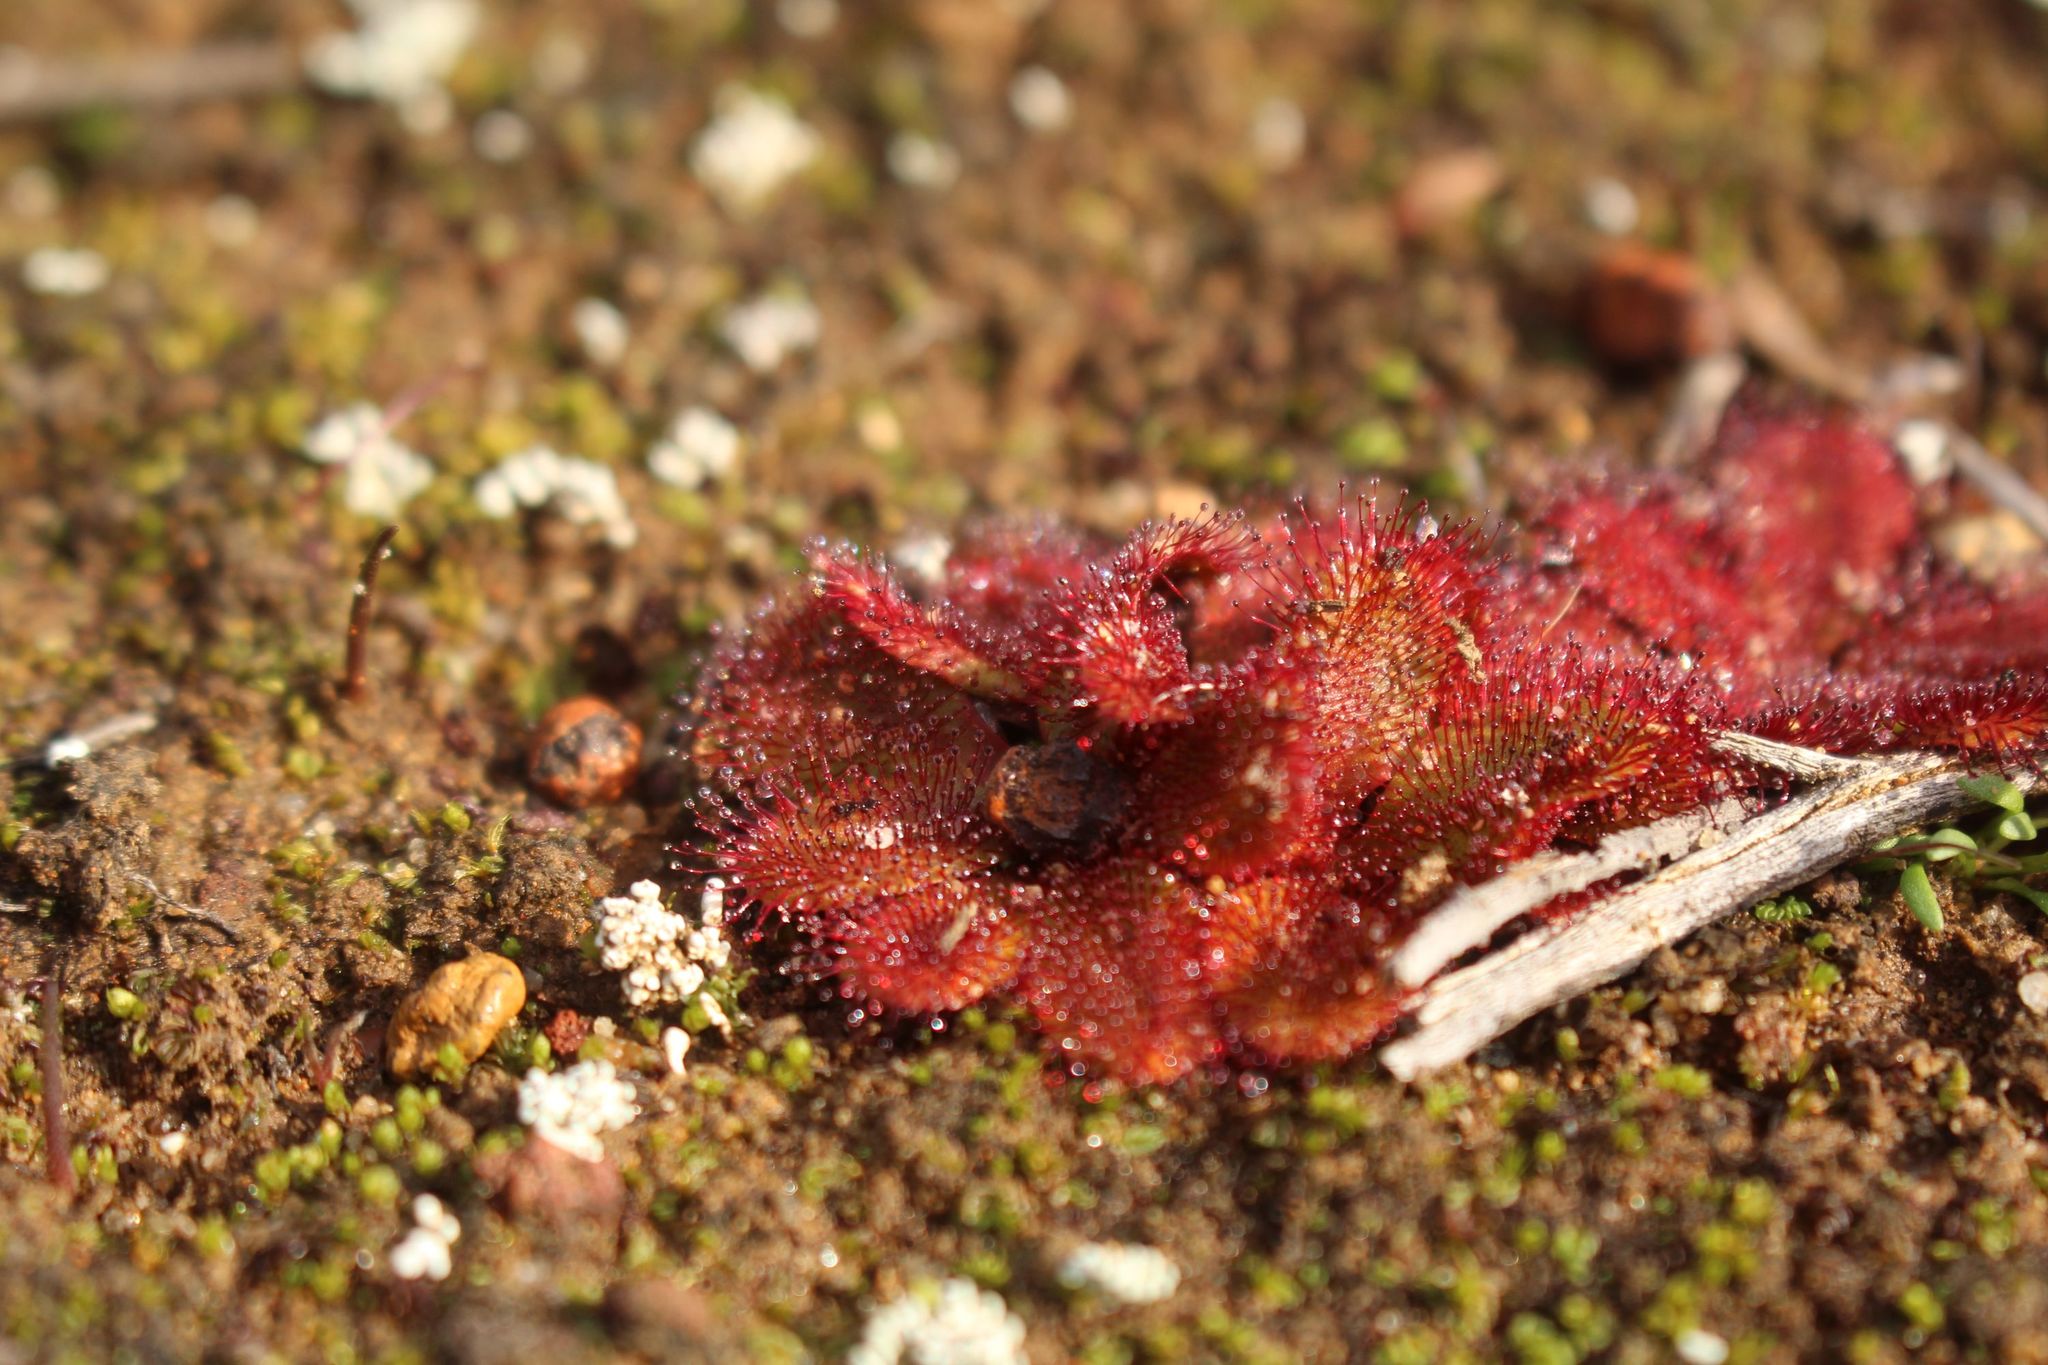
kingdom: Plantae
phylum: Tracheophyta
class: Magnoliopsida
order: Caryophyllales
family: Droseraceae
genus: Drosera
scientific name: Drosera rosulata
